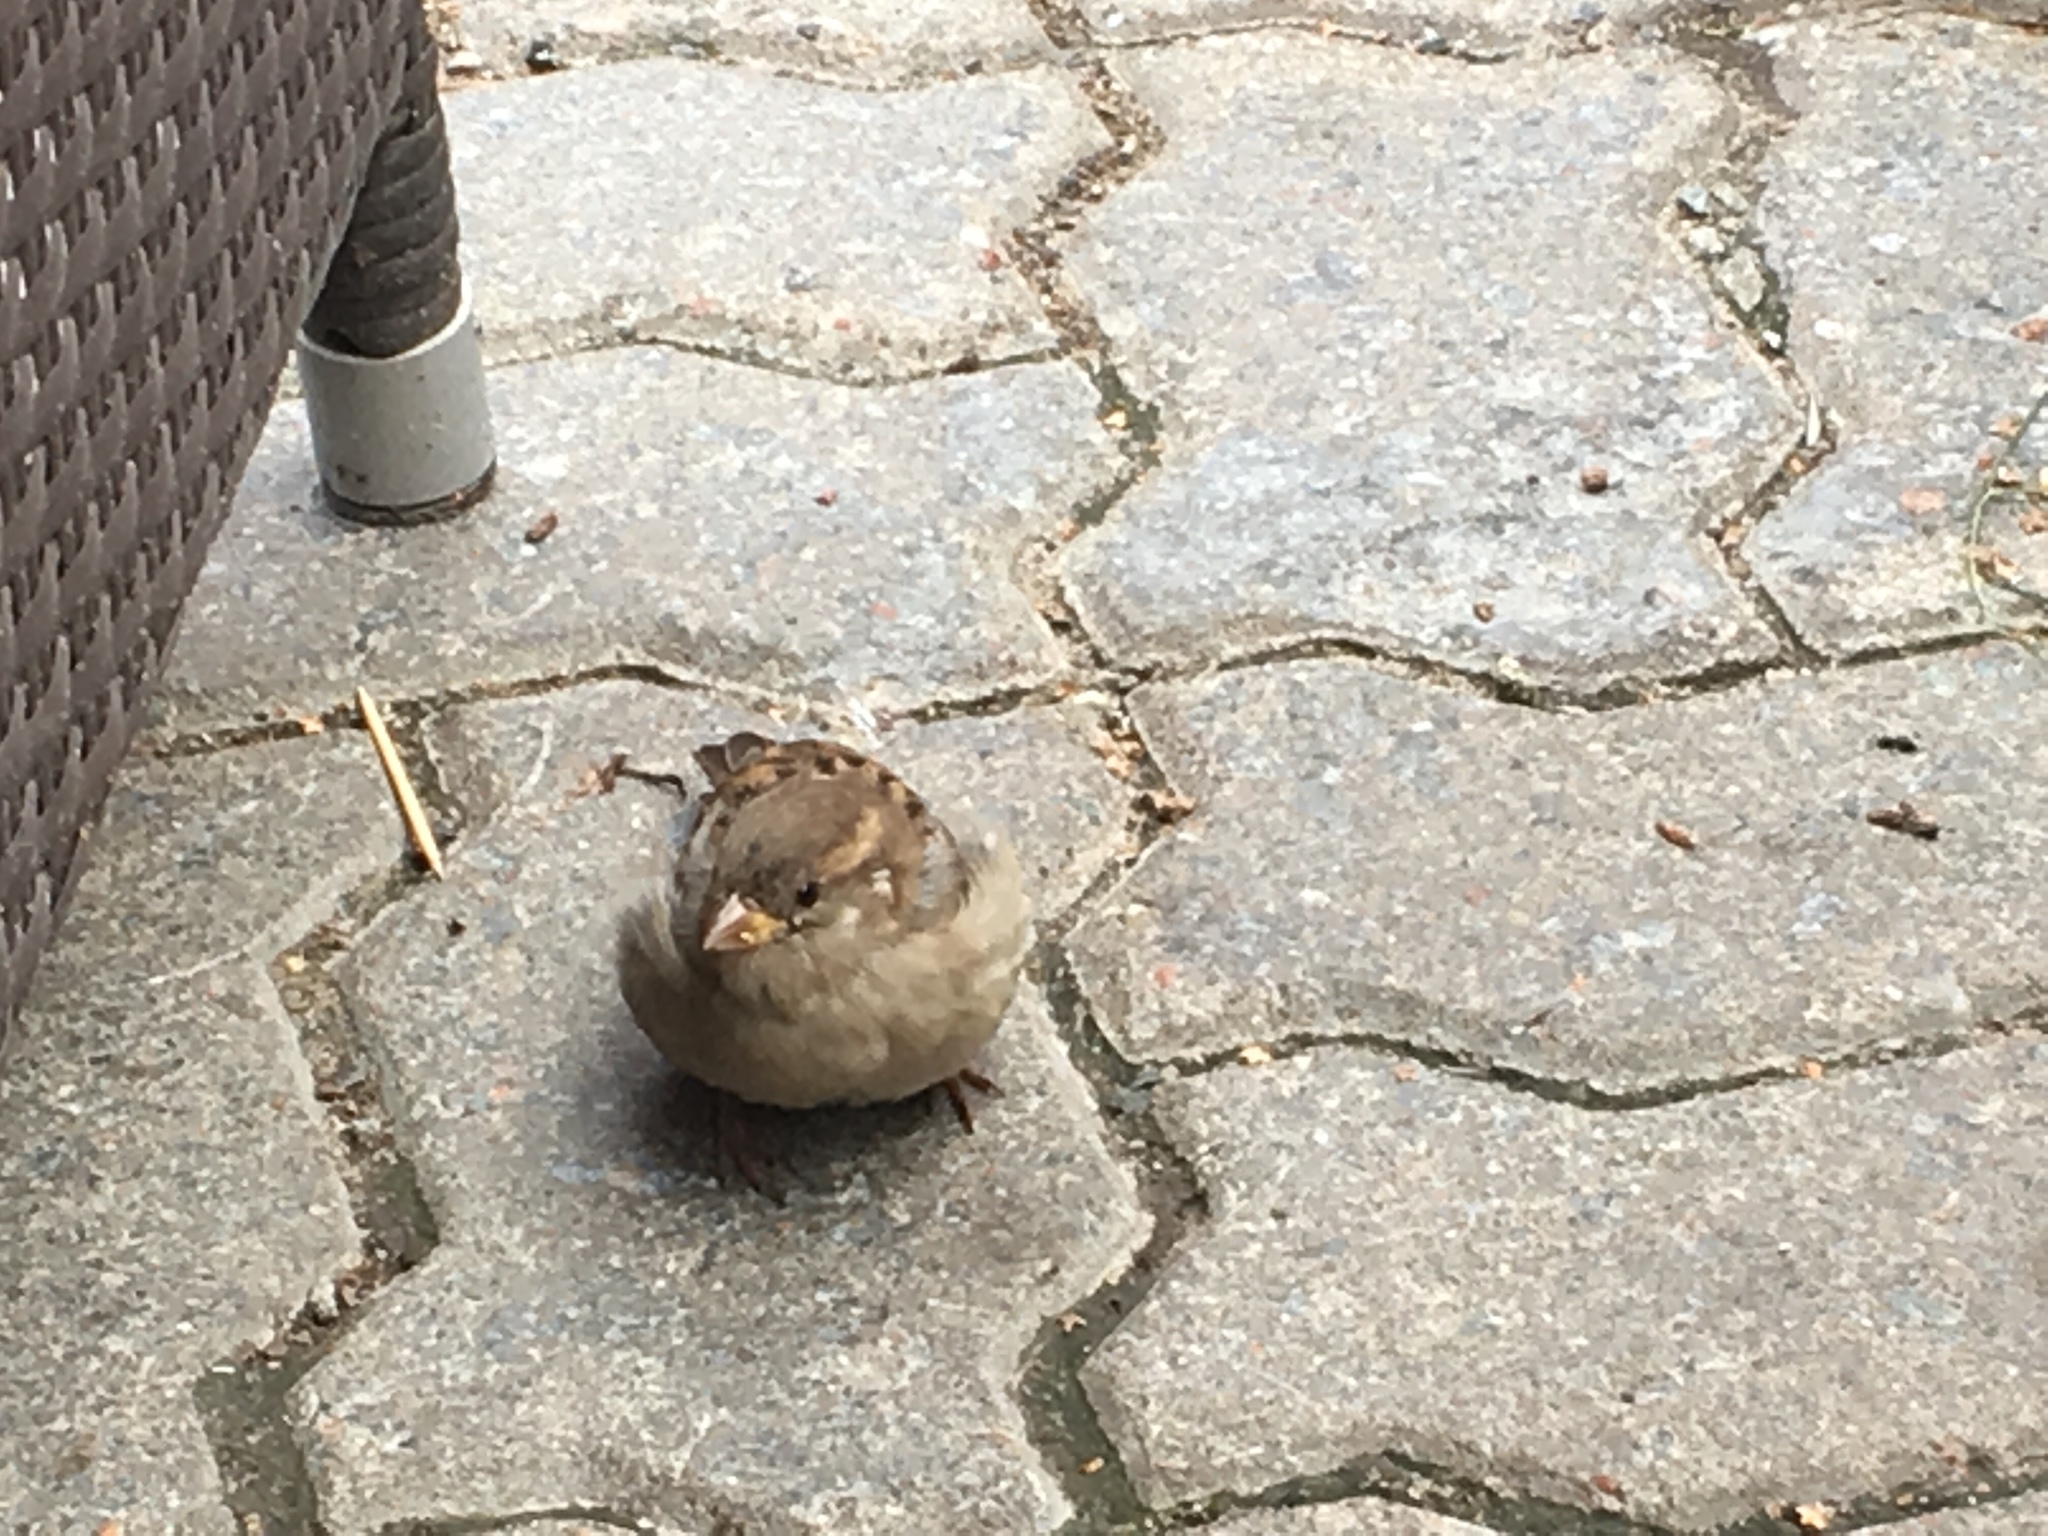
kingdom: Animalia
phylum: Chordata
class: Aves
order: Passeriformes
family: Passeridae
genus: Passer
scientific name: Passer domesticus
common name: House sparrow
